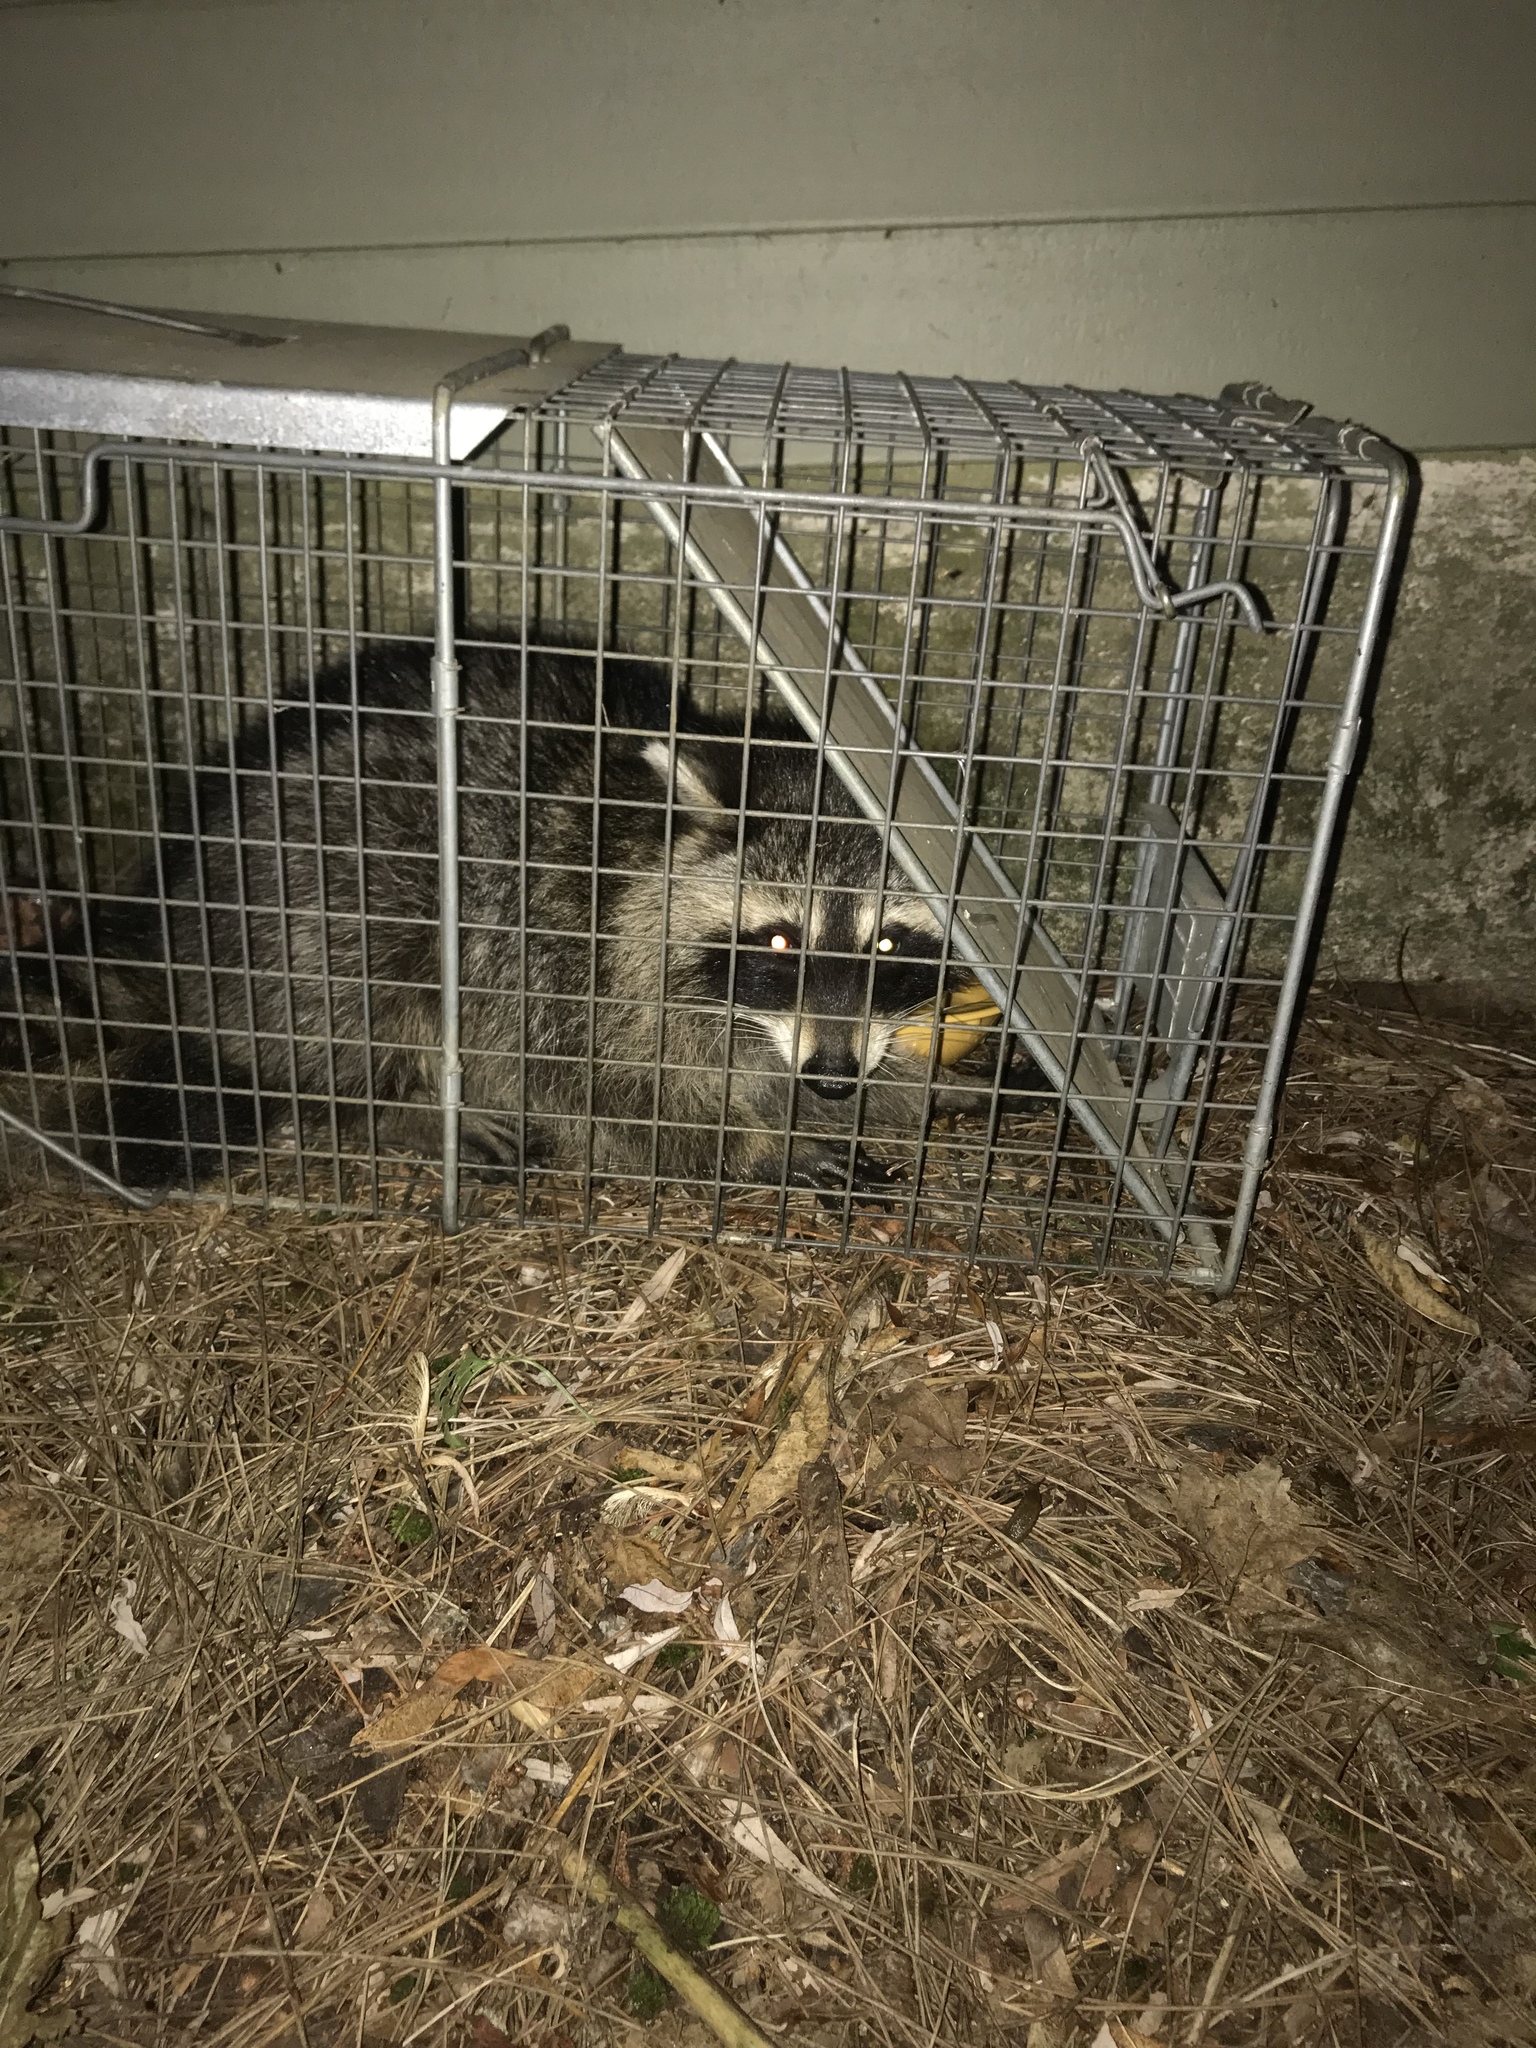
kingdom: Animalia
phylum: Chordata
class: Mammalia
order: Carnivora
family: Procyonidae
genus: Procyon
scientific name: Procyon lotor
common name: Raccoon
